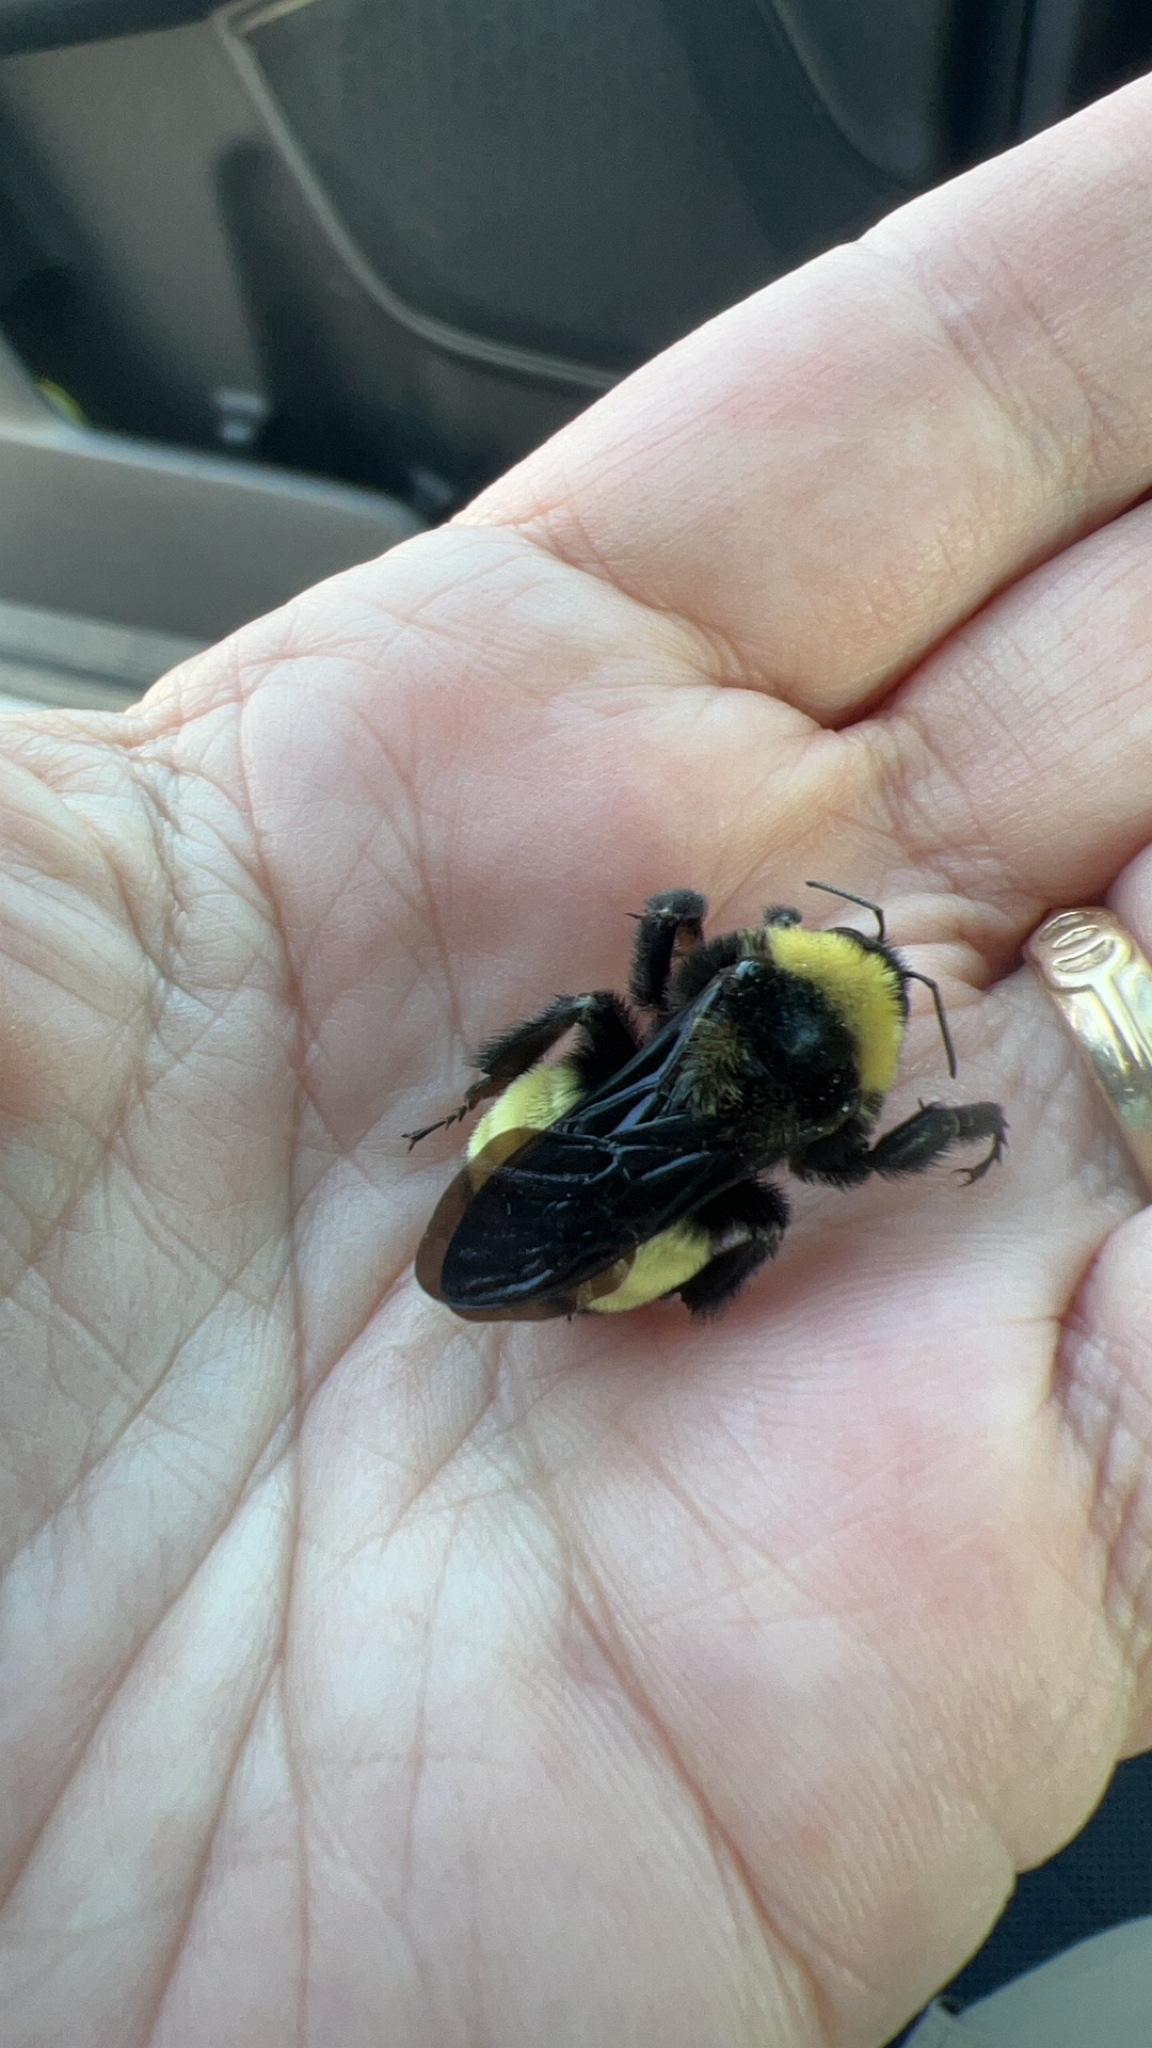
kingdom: Animalia
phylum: Arthropoda
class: Insecta
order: Hymenoptera
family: Apidae
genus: Bombus
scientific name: Bombus pensylvanicus
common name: Bumble bee
